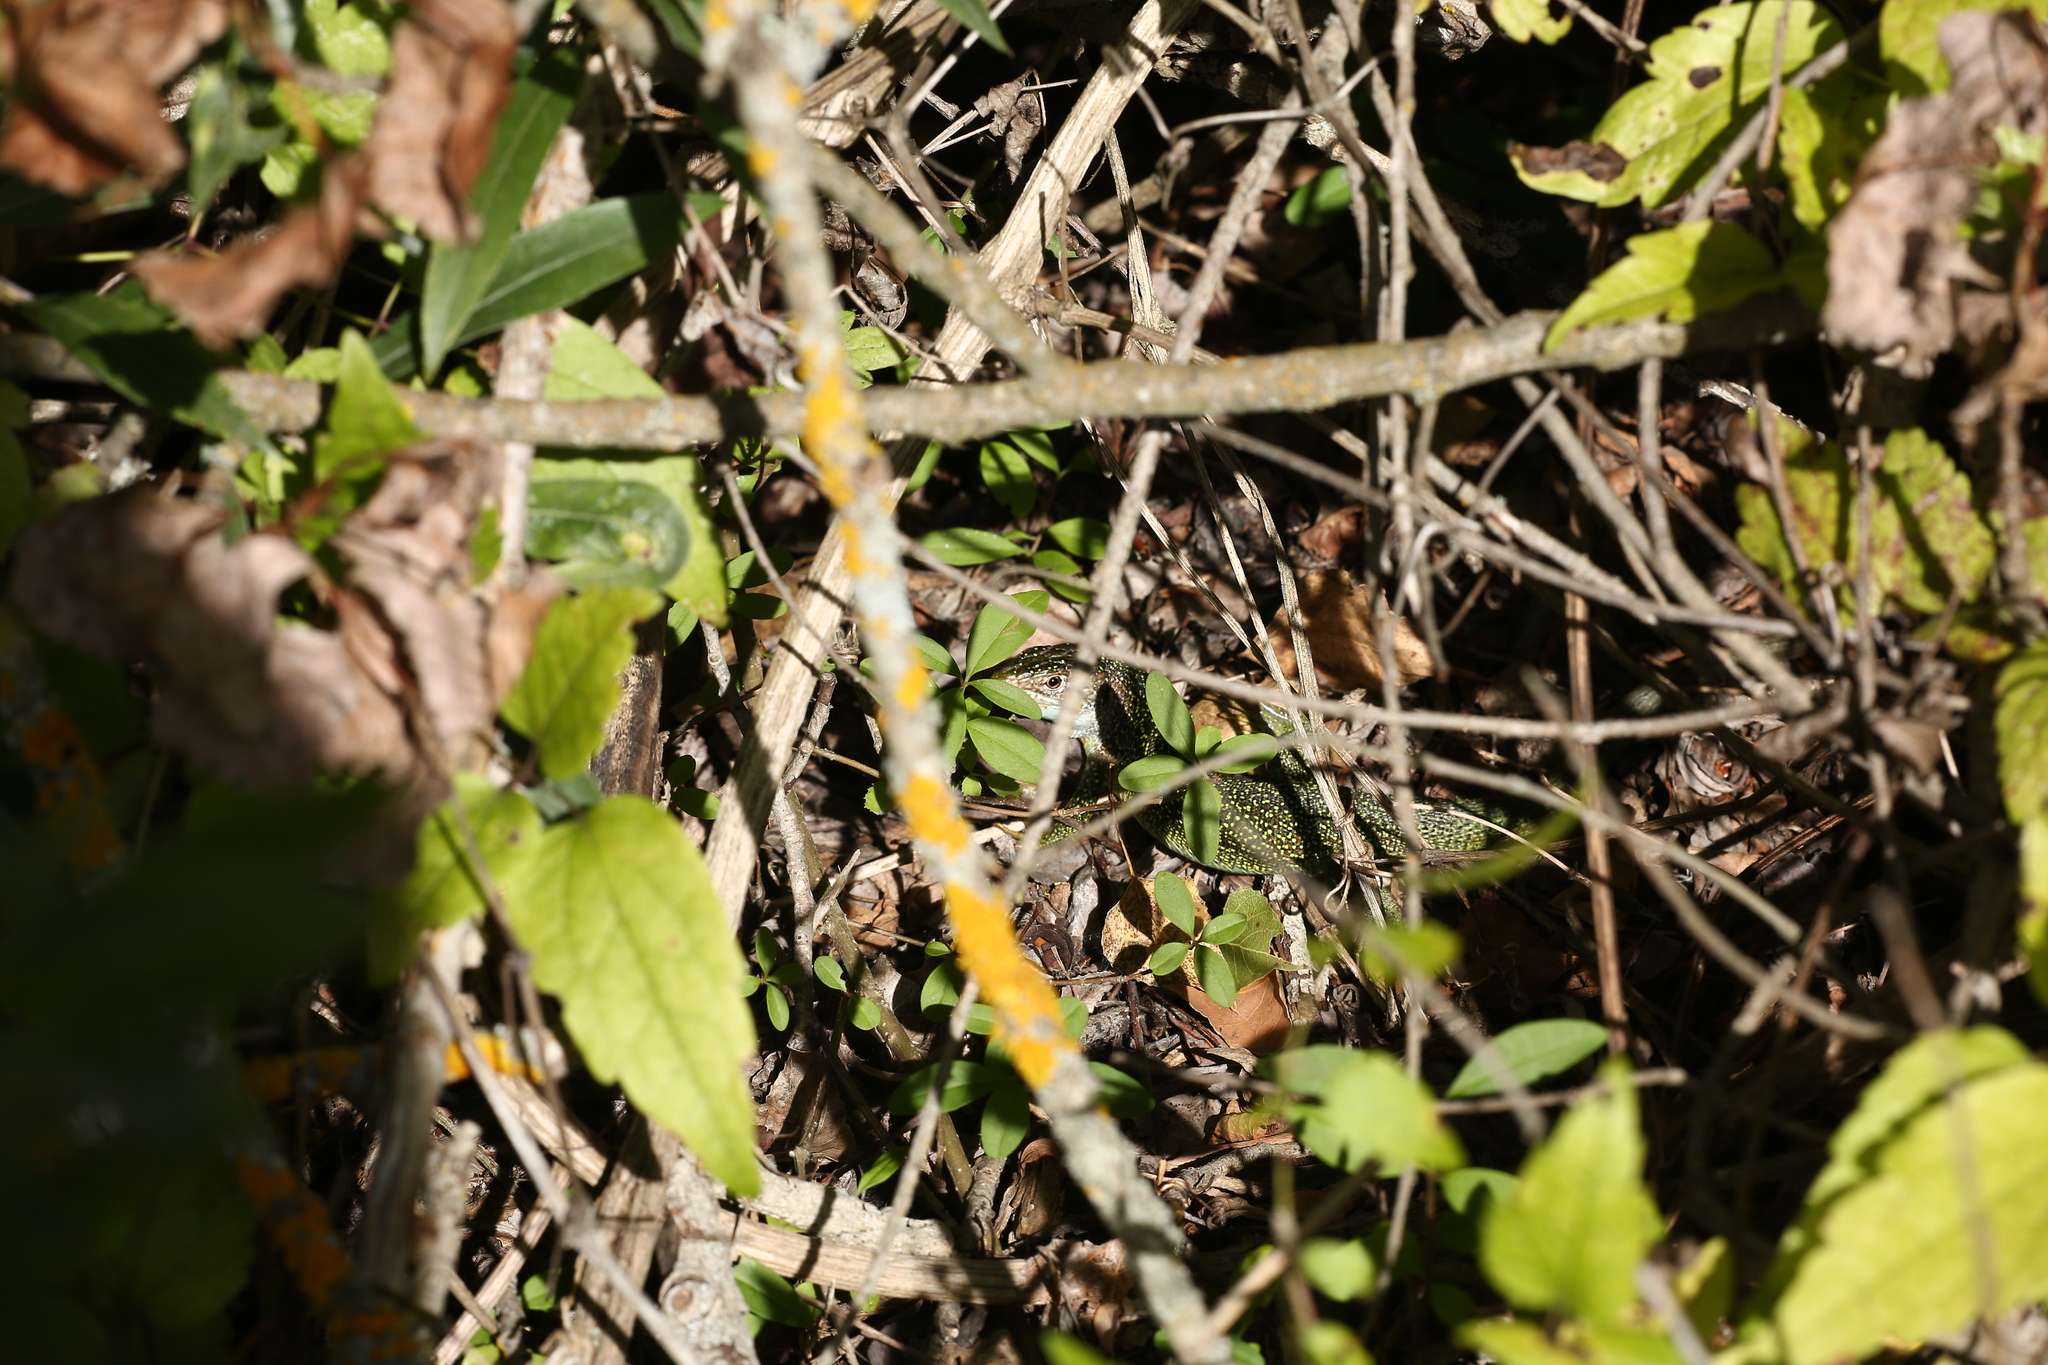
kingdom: Animalia
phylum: Chordata
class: Squamata
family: Lacertidae
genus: Lacerta
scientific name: Lacerta bilineata
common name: Western green lizard
